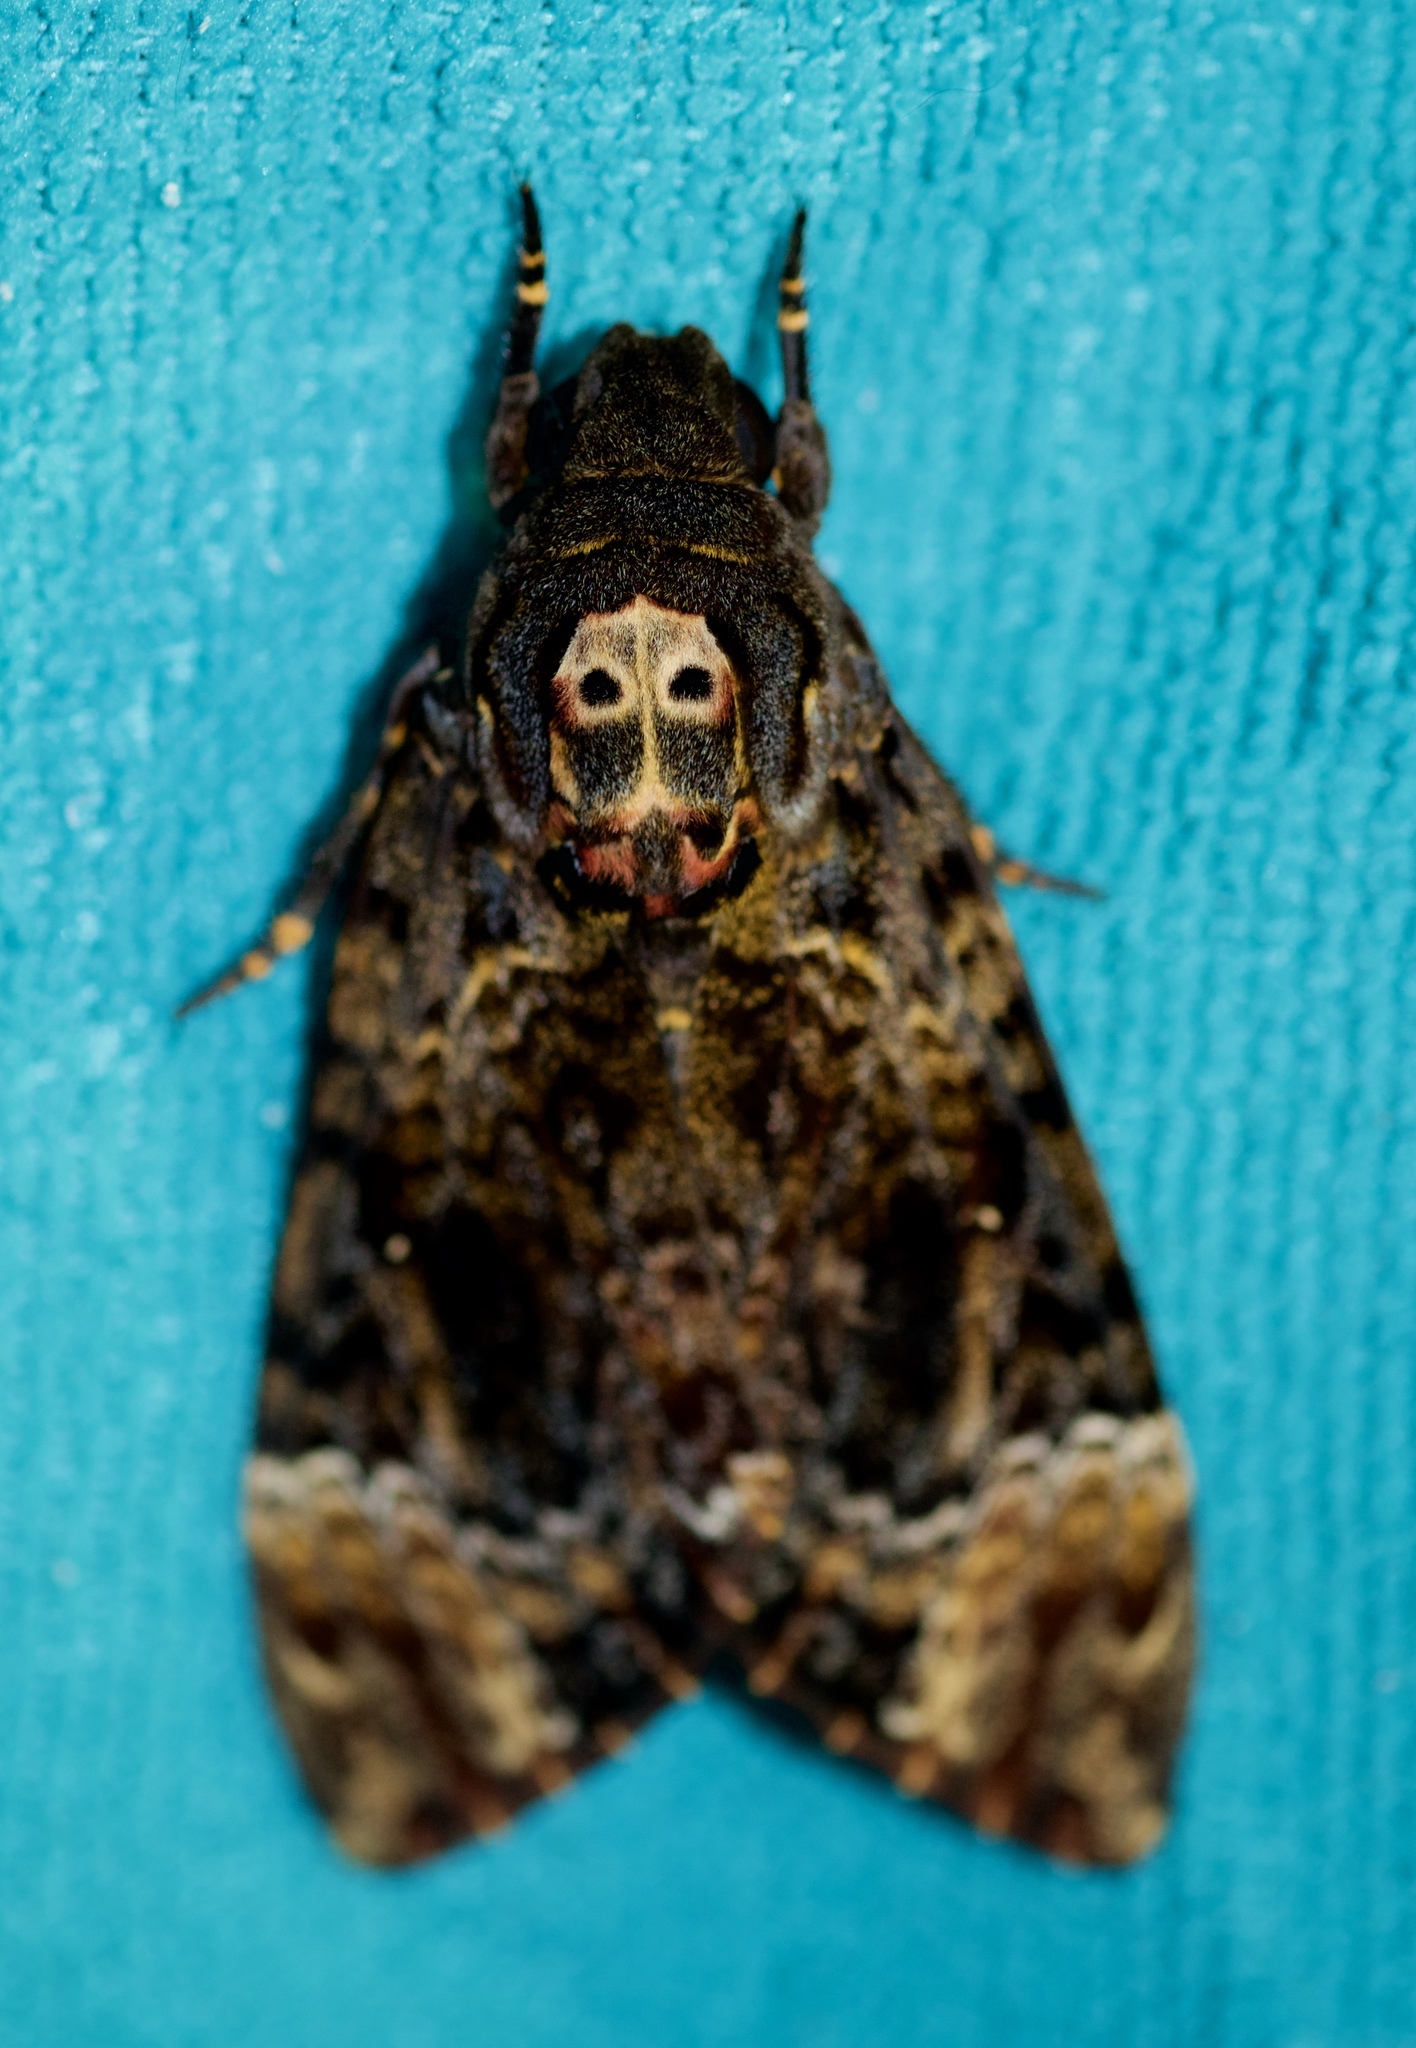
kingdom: Animalia
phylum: Arthropoda
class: Insecta
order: Lepidoptera
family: Sphingidae
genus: Acherontia
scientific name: Acherontia lachesis
